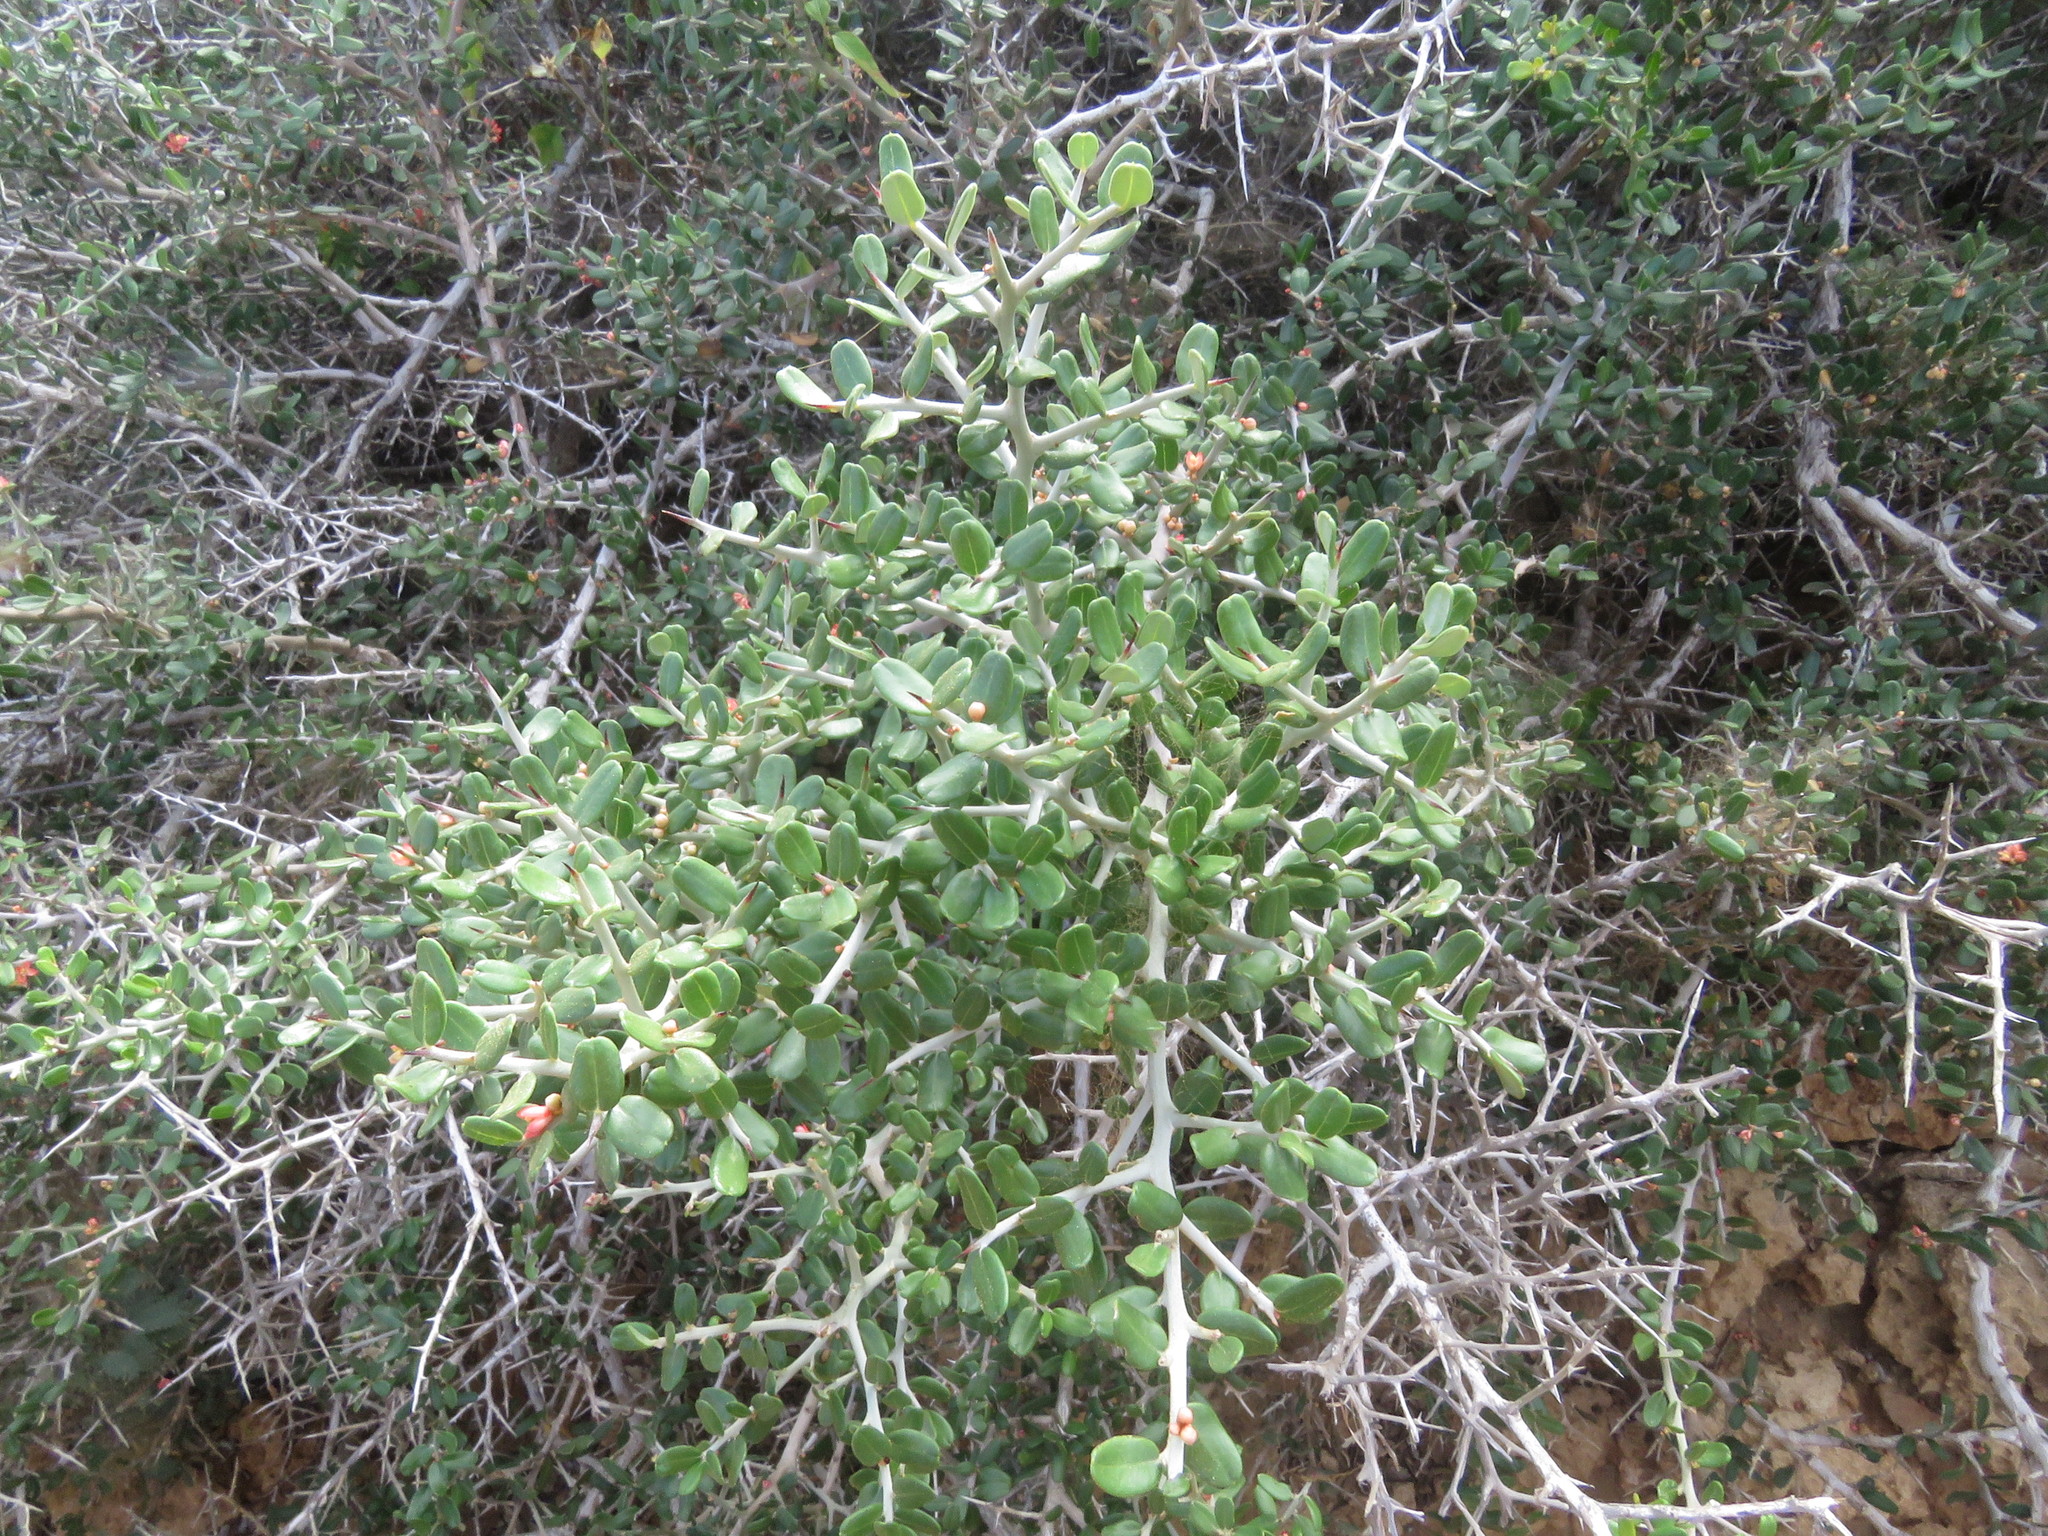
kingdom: Plantae
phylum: Tracheophyta
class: Magnoliopsida
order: Sapindales
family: Simaroubaceae
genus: Castela
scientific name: Castela erecta
